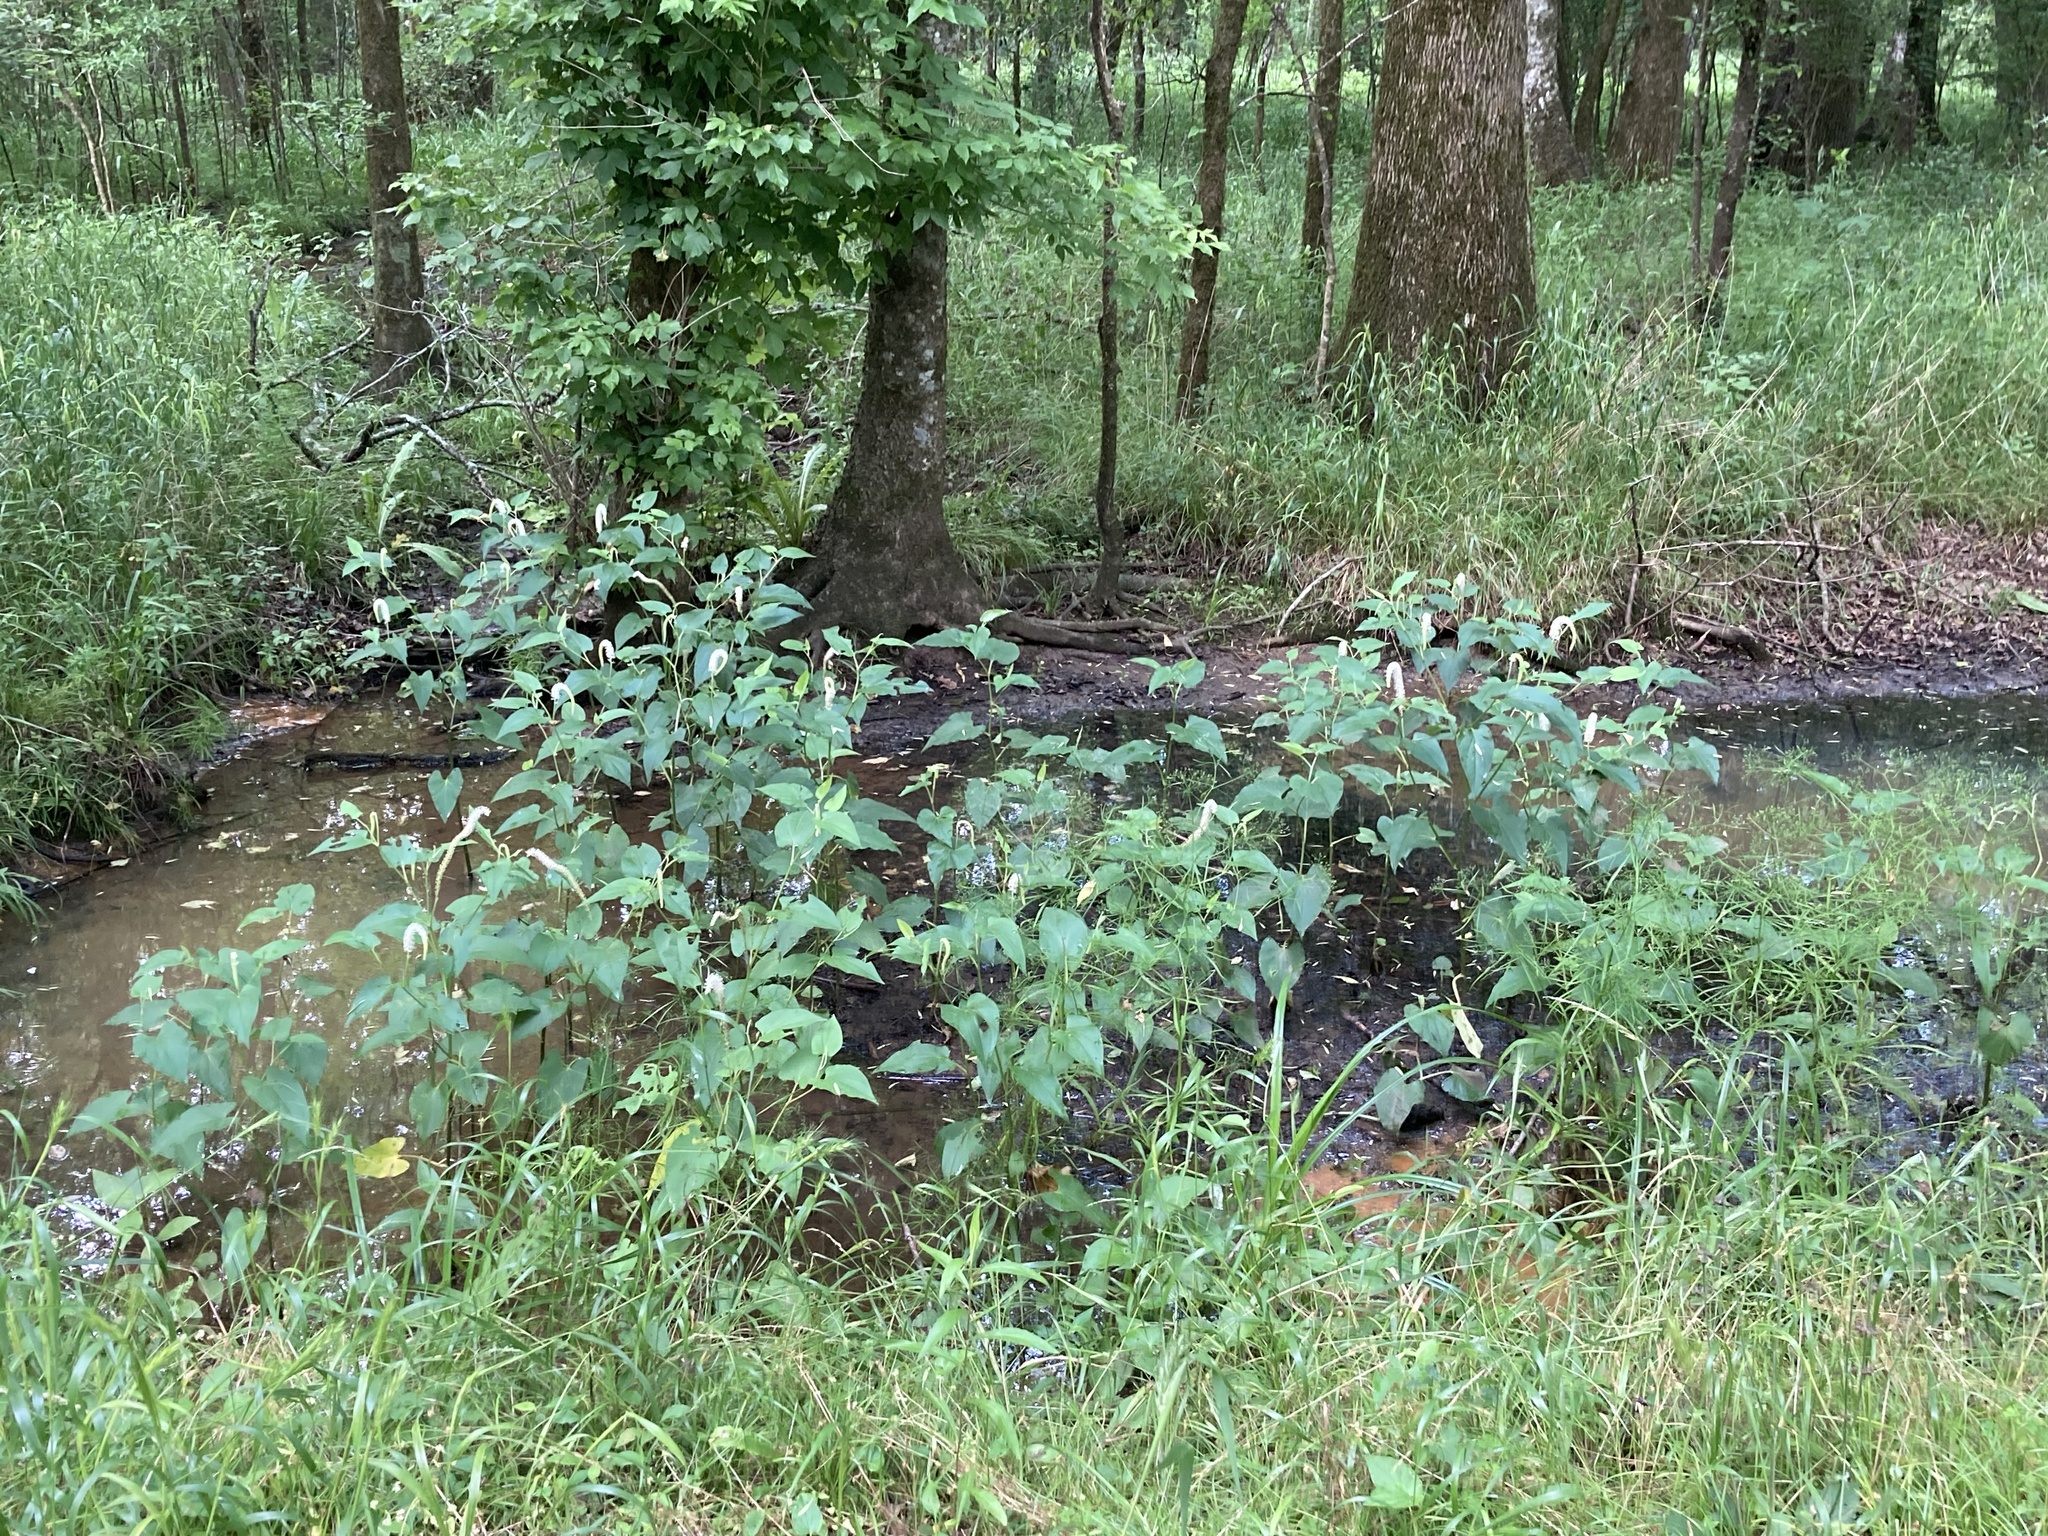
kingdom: Plantae
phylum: Tracheophyta
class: Magnoliopsida
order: Piperales
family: Saururaceae
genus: Saururus
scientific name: Saururus cernuus
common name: Lizard's-tail
